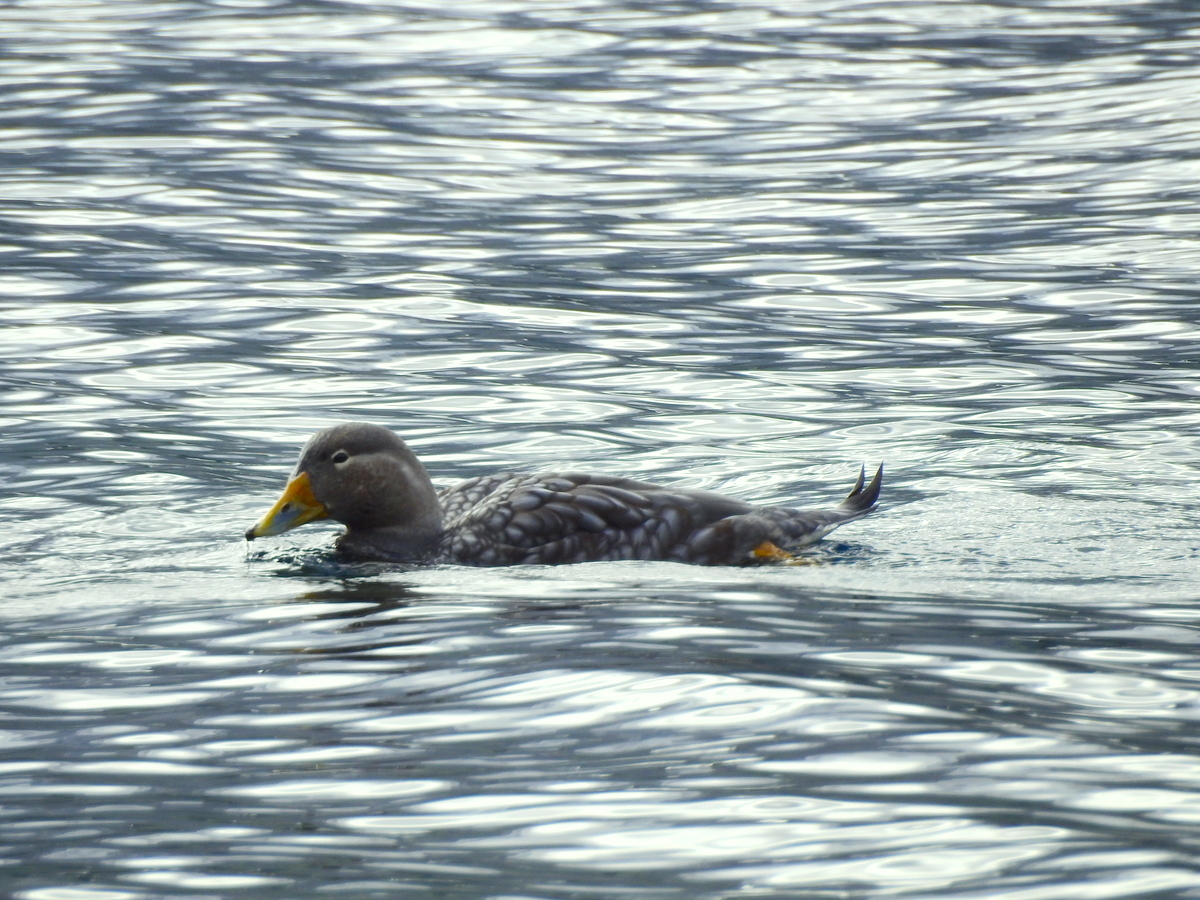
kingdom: Animalia
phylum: Chordata
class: Aves
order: Anseriformes
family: Anatidae
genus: Tachyeres
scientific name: Tachyeres patachonicus
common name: Flying steamer duck
